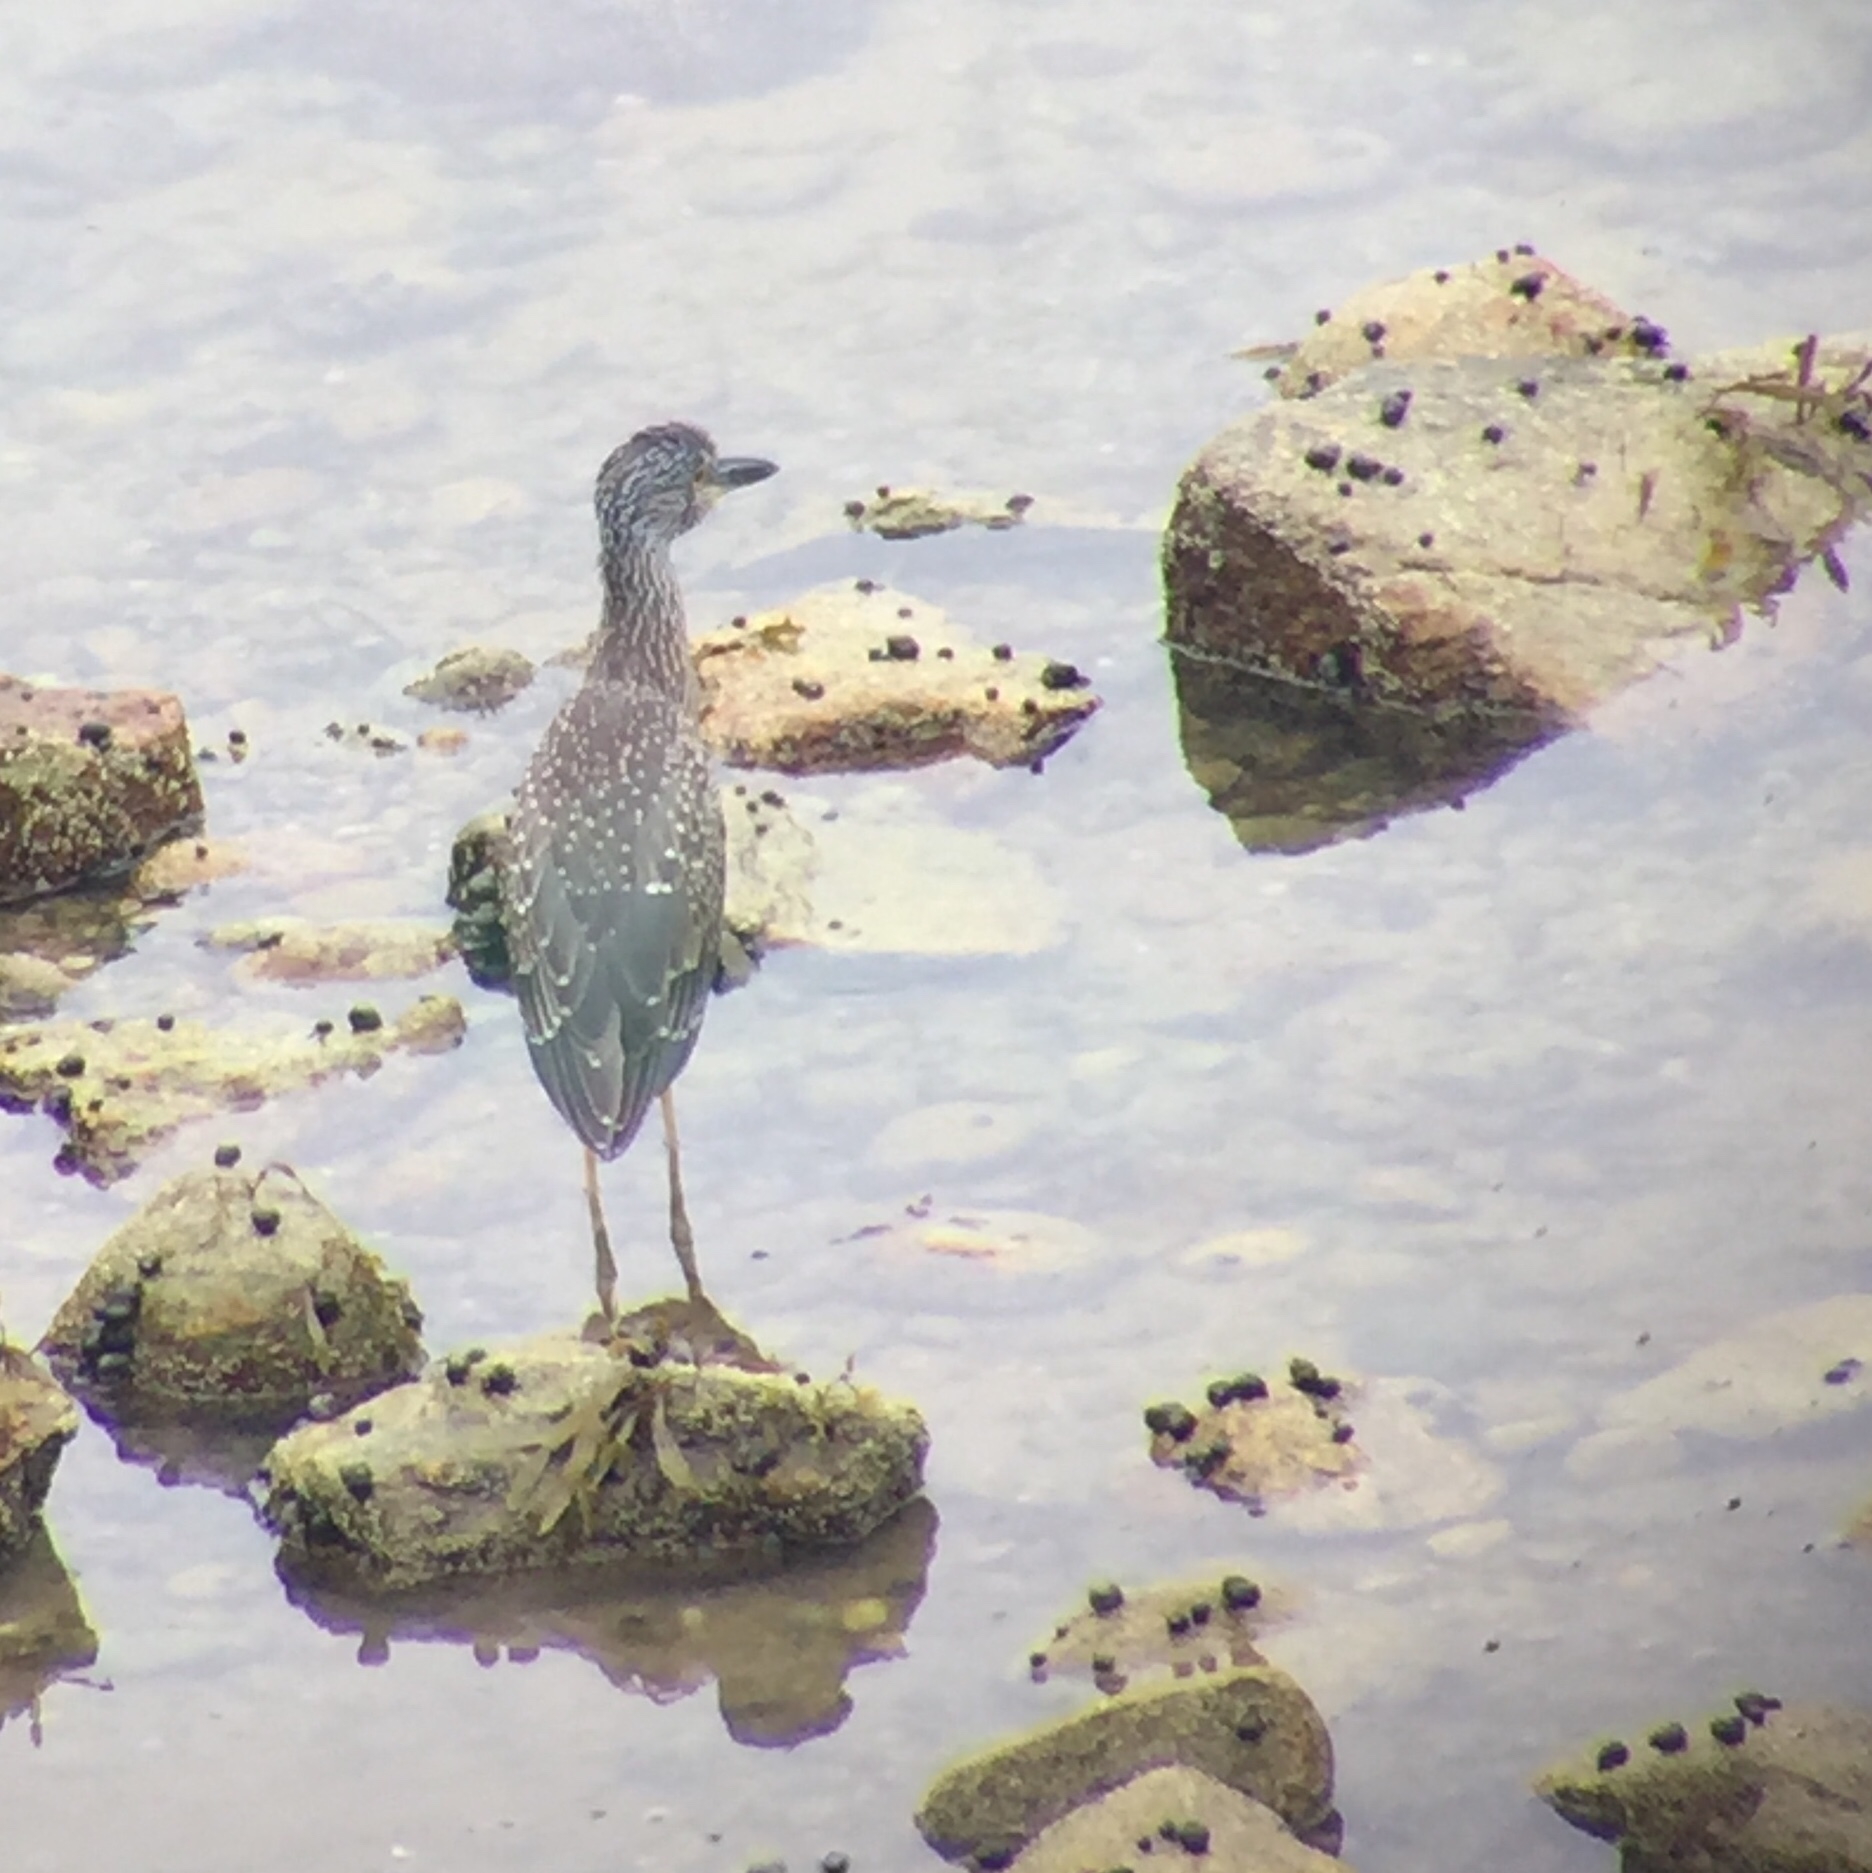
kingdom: Animalia
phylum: Chordata
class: Aves
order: Pelecaniformes
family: Ardeidae
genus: Nyctanassa
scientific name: Nyctanassa violacea
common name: Yellow-crowned night heron
